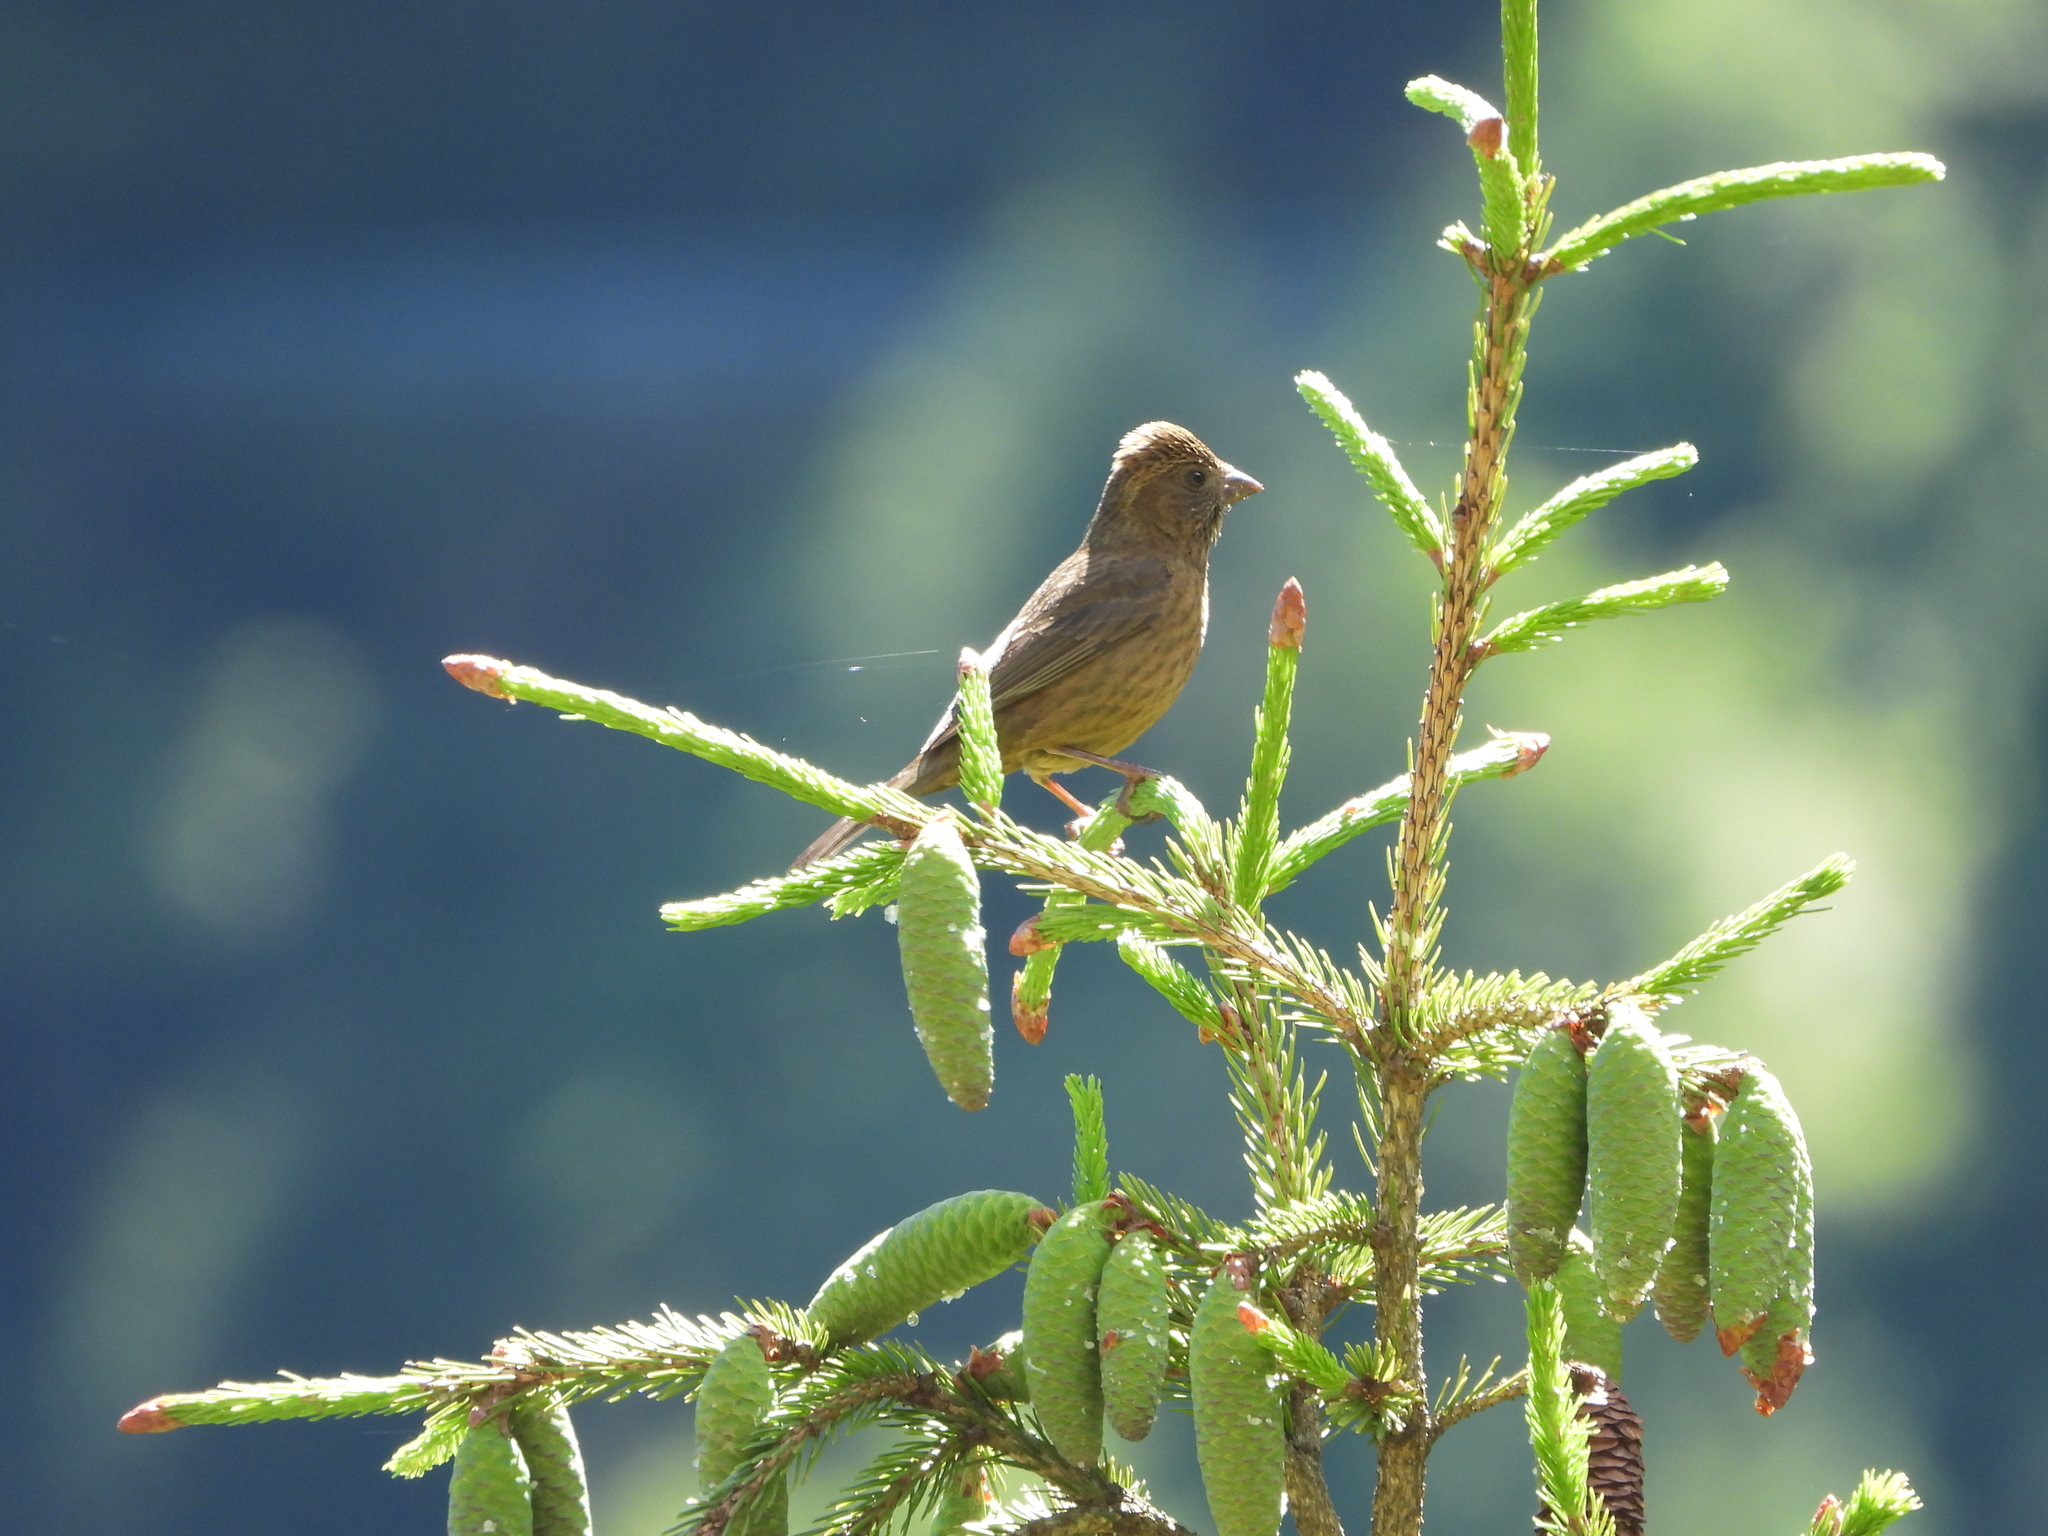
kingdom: Animalia
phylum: Chordata
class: Aves
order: Passeriformes
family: Fringillidae
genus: Carpodacus
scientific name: Carpodacus formosanus
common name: Taiwan rosefinch
